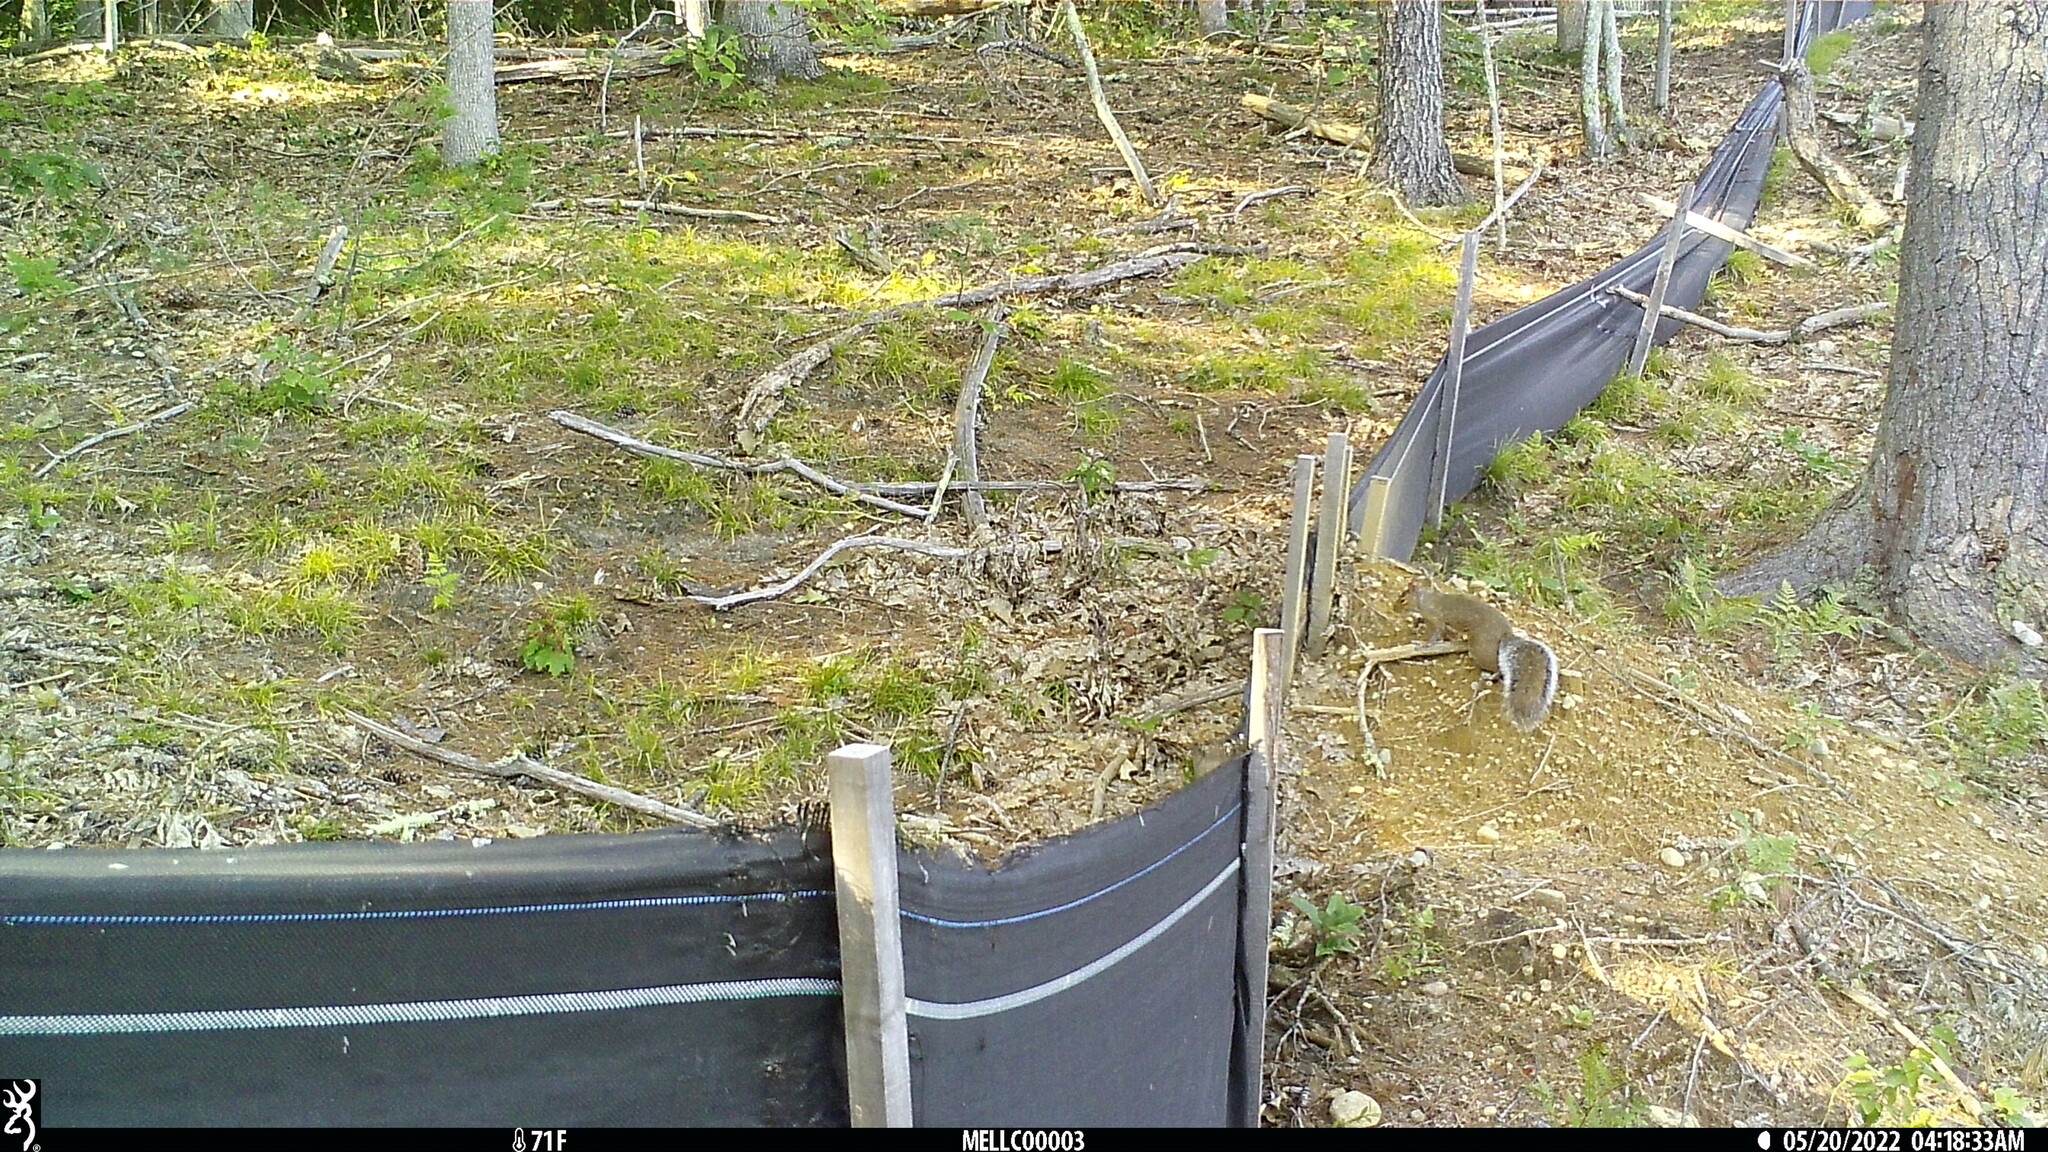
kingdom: Animalia
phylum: Chordata
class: Mammalia
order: Rodentia
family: Sciuridae
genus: Sciurus
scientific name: Sciurus carolinensis
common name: Eastern gray squirrel
